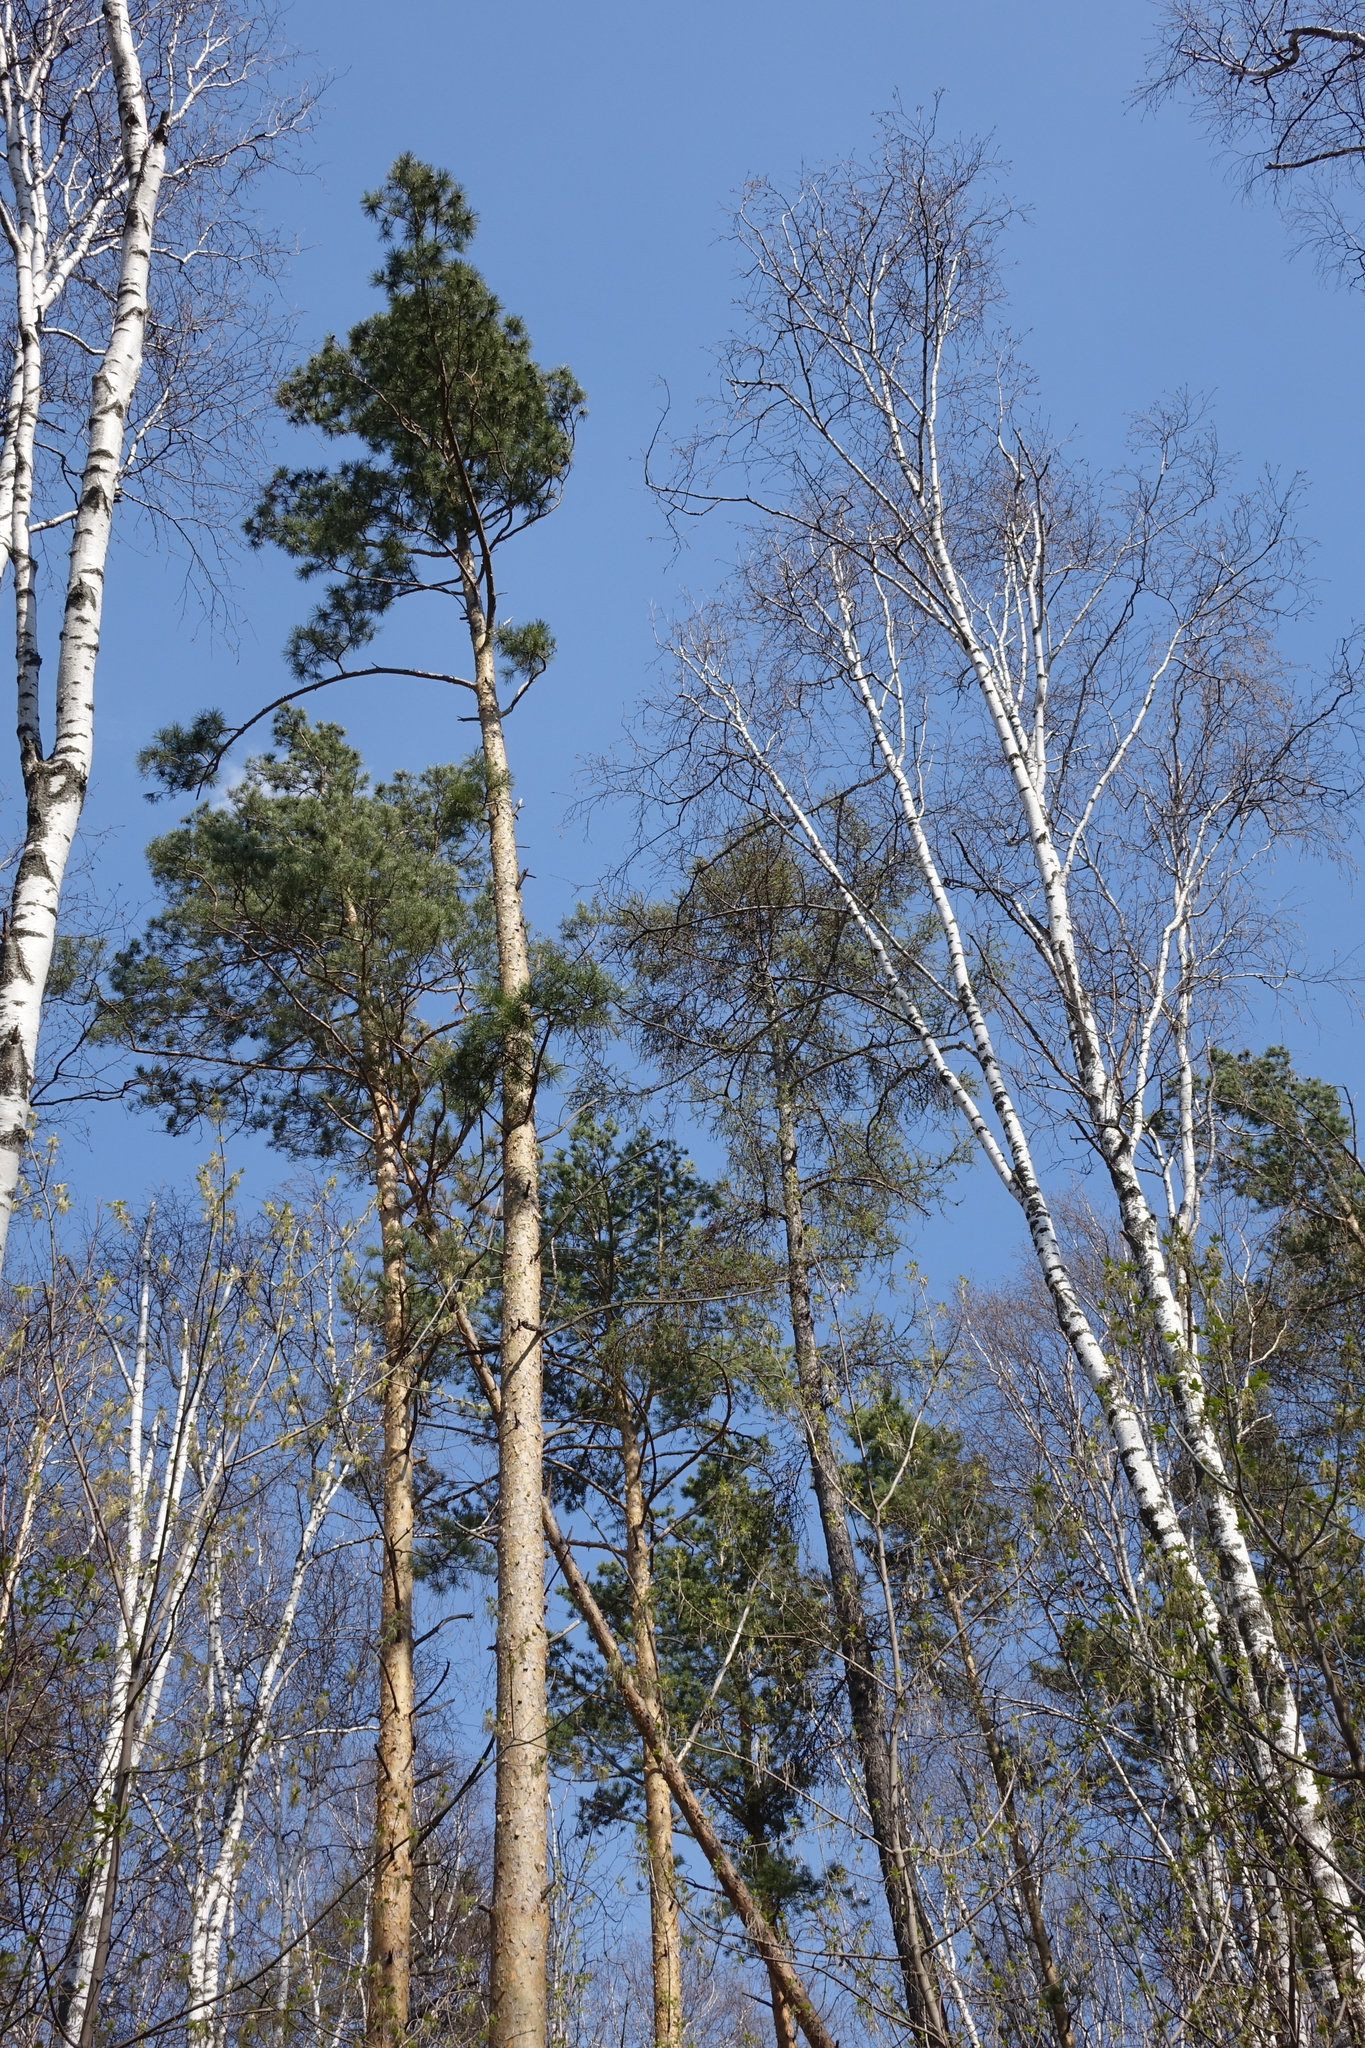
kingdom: Plantae
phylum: Tracheophyta
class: Pinopsida
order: Pinales
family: Pinaceae
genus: Pinus
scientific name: Pinus sylvestris
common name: Scots pine
